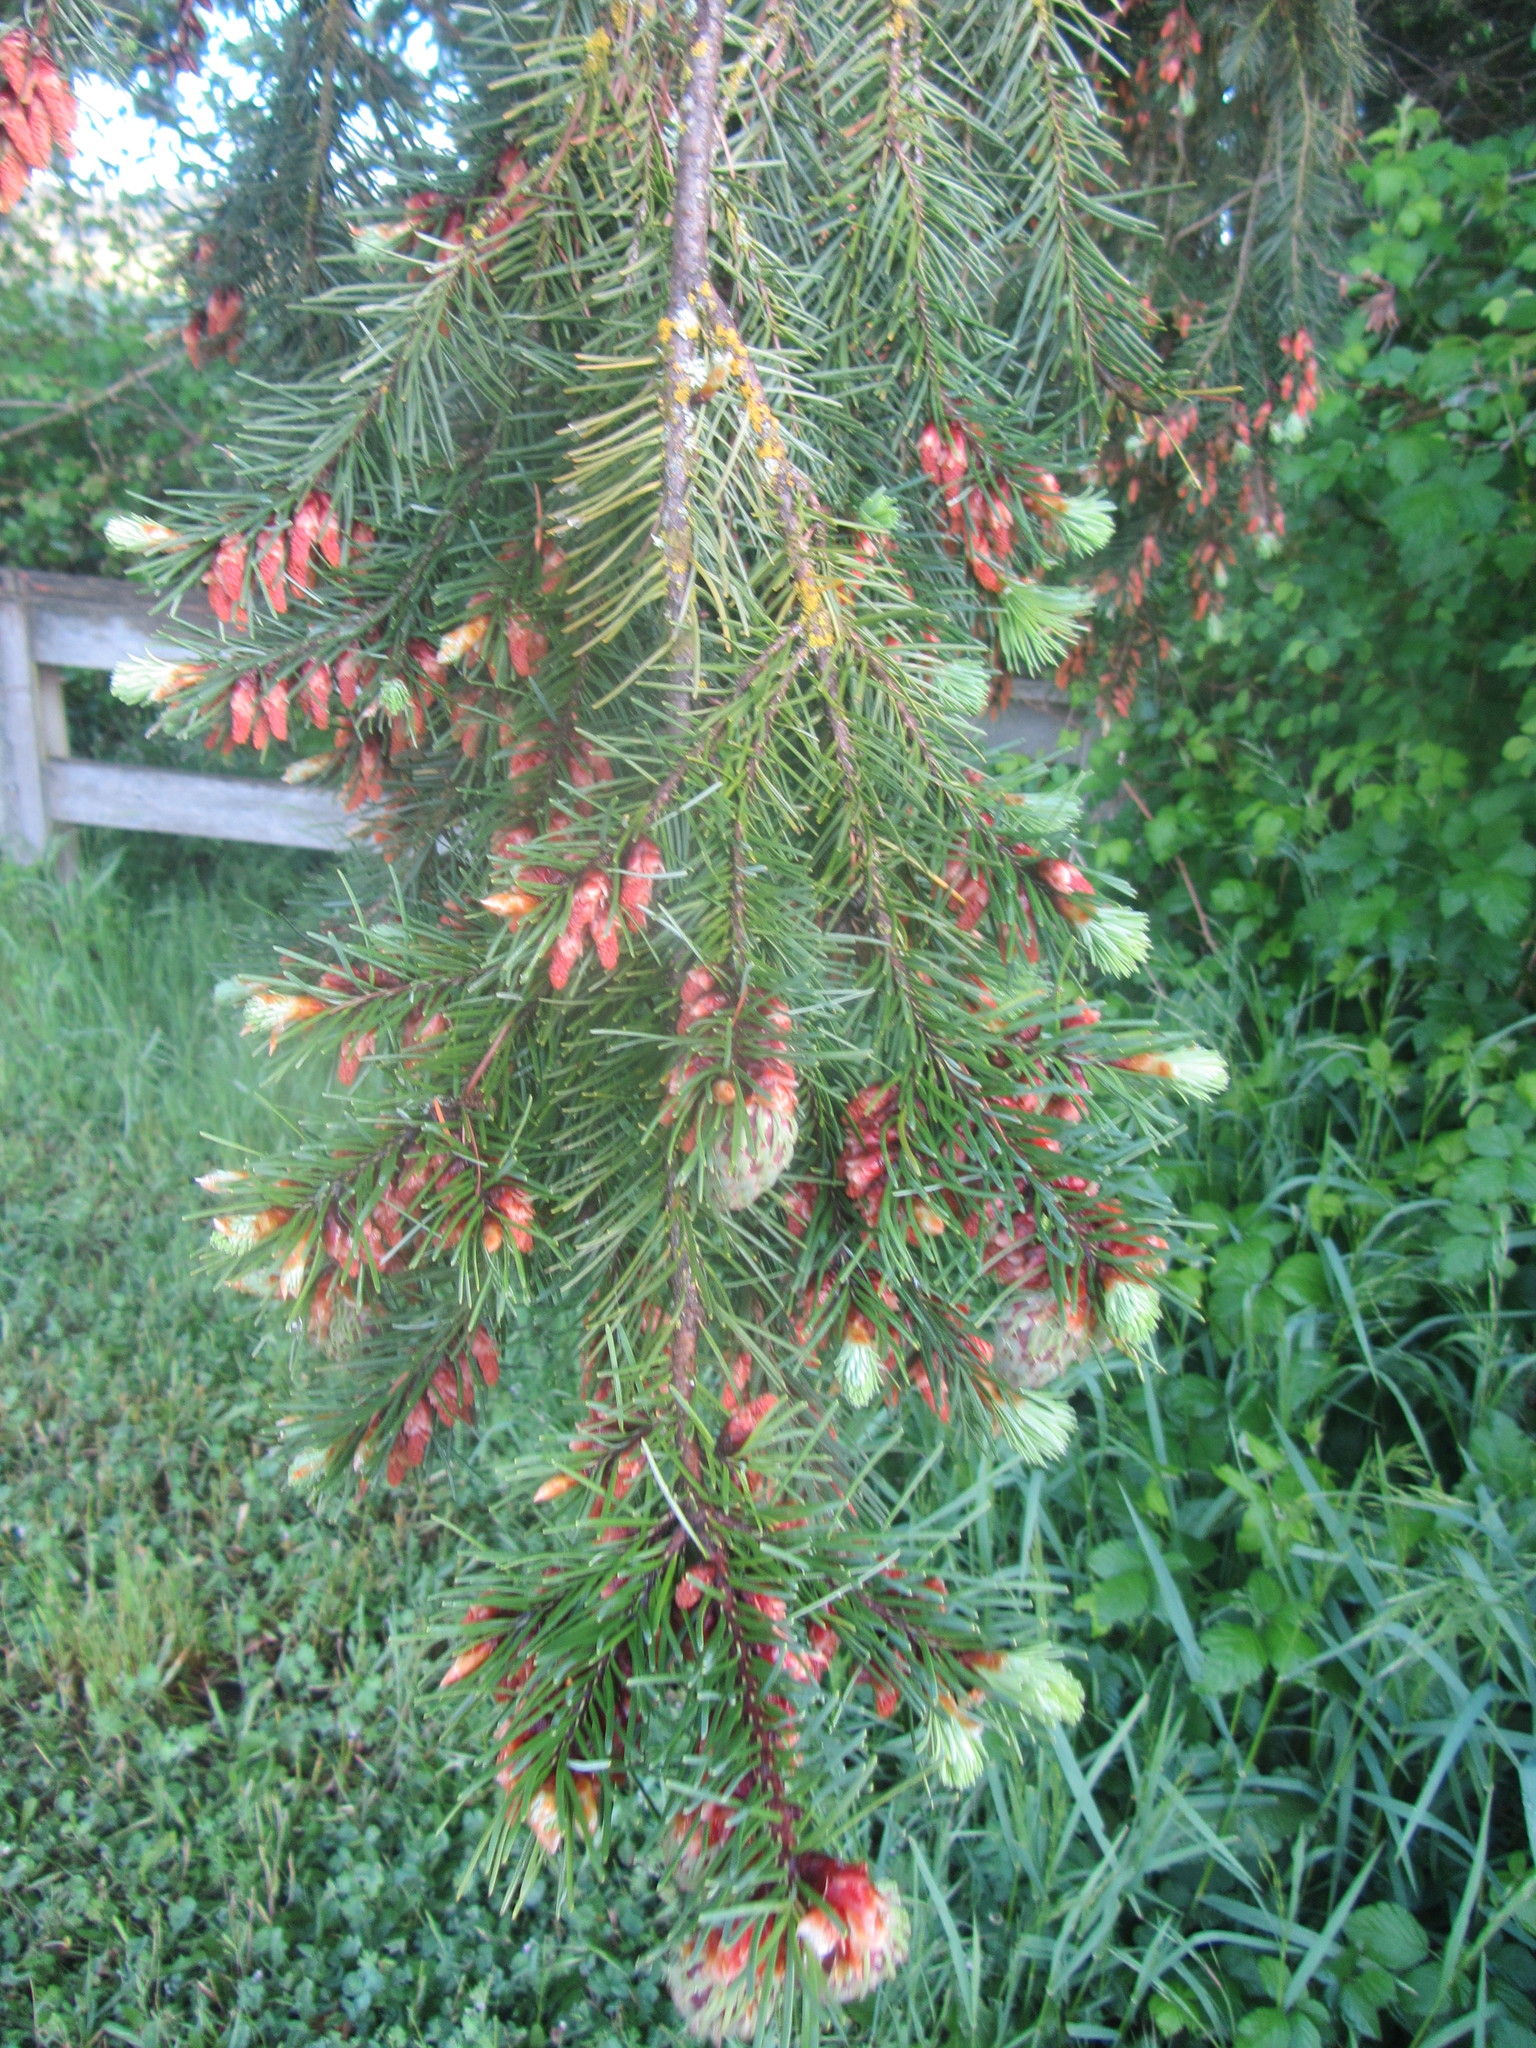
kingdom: Plantae
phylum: Tracheophyta
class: Pinopsida
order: Pinales
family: Pinaceae
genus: Pseudotsuga
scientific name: Pseudotsuga menziesii
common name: Douglas fir
